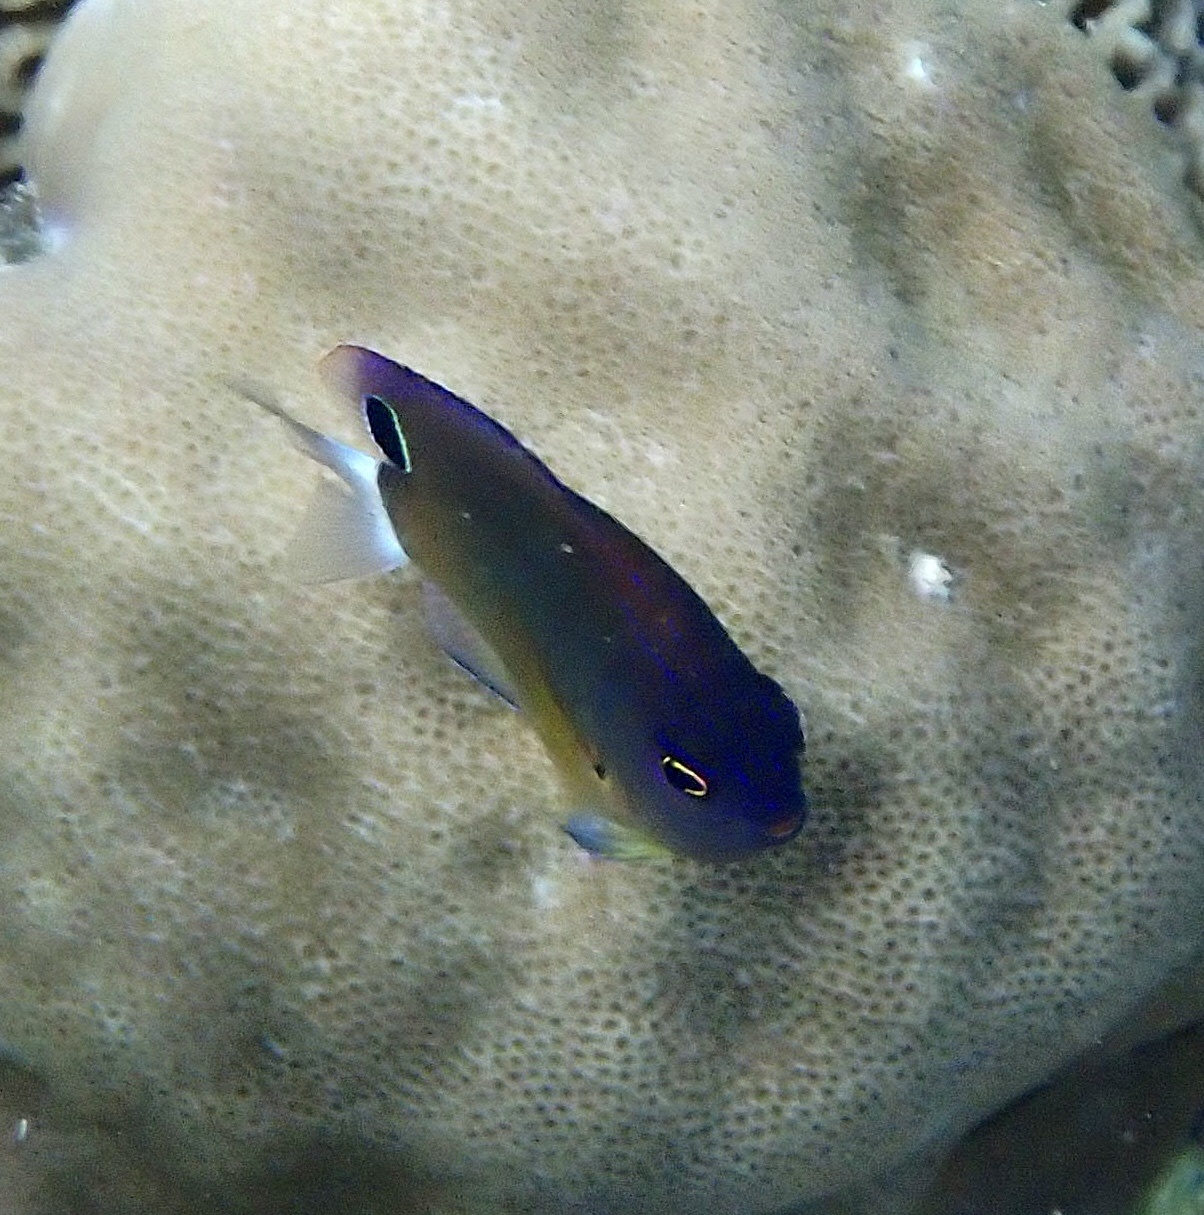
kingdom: Animalia
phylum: Chordata
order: Perciformes
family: Pomacentridae
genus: Pomacentrus
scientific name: Pomacentrus bankanensis
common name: Speckled damsel
